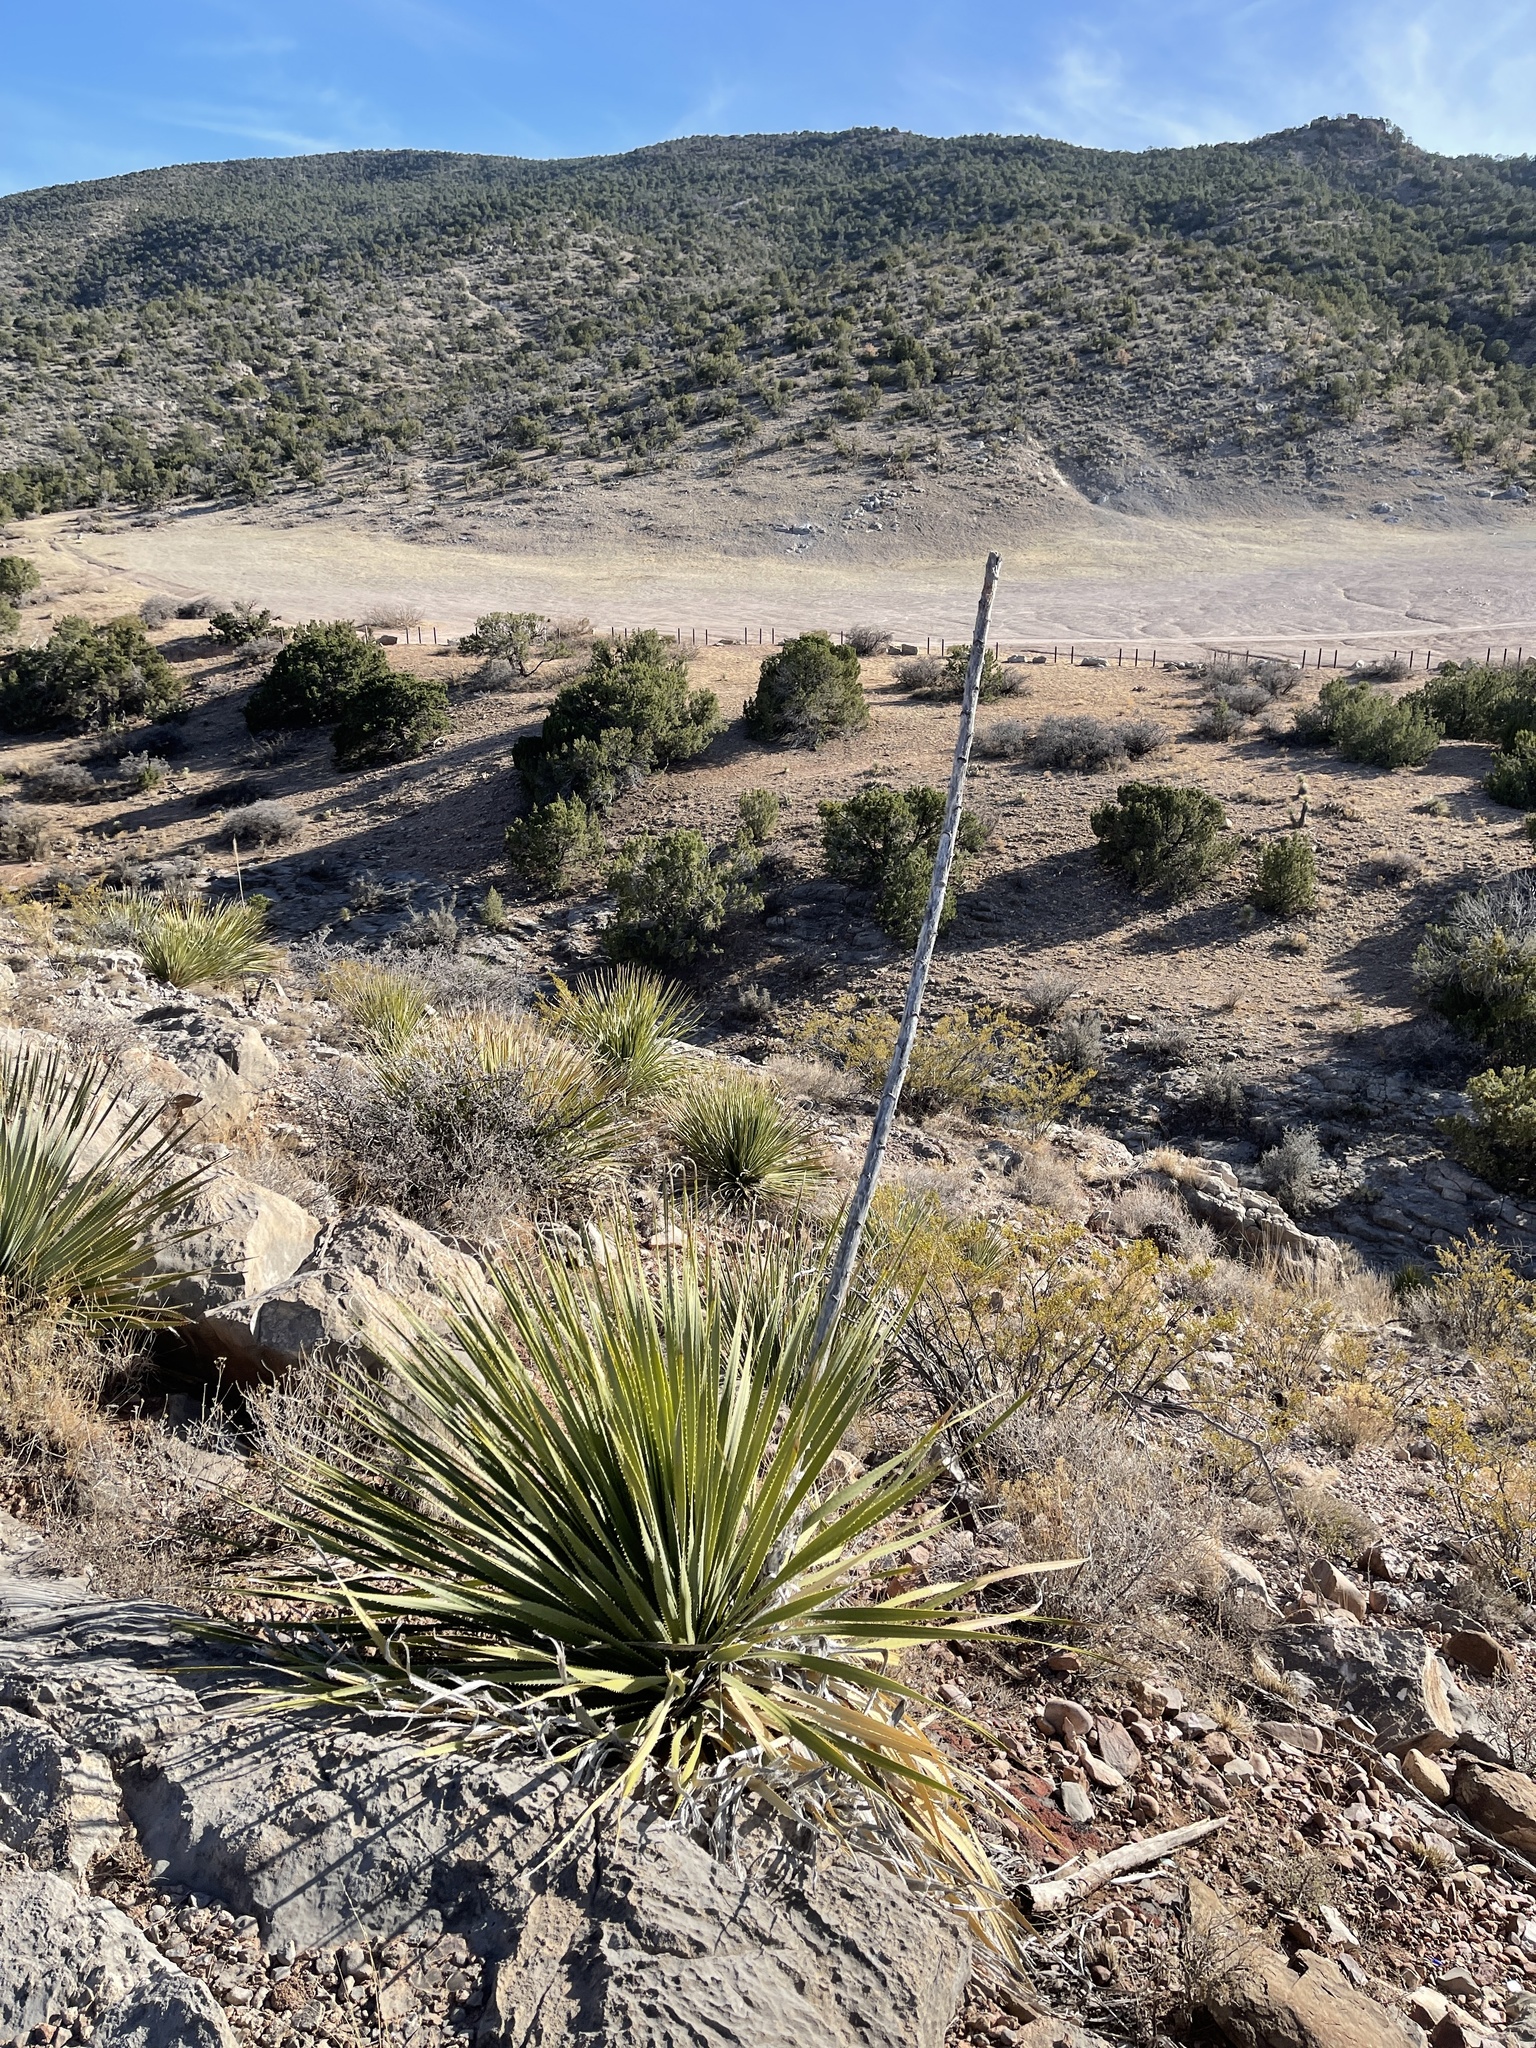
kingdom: Plantae
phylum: Tracheophyta
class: Liliopsida
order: Asparagales
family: Asparagaceae
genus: Dasylirion
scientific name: Dasylirion wheeleri
